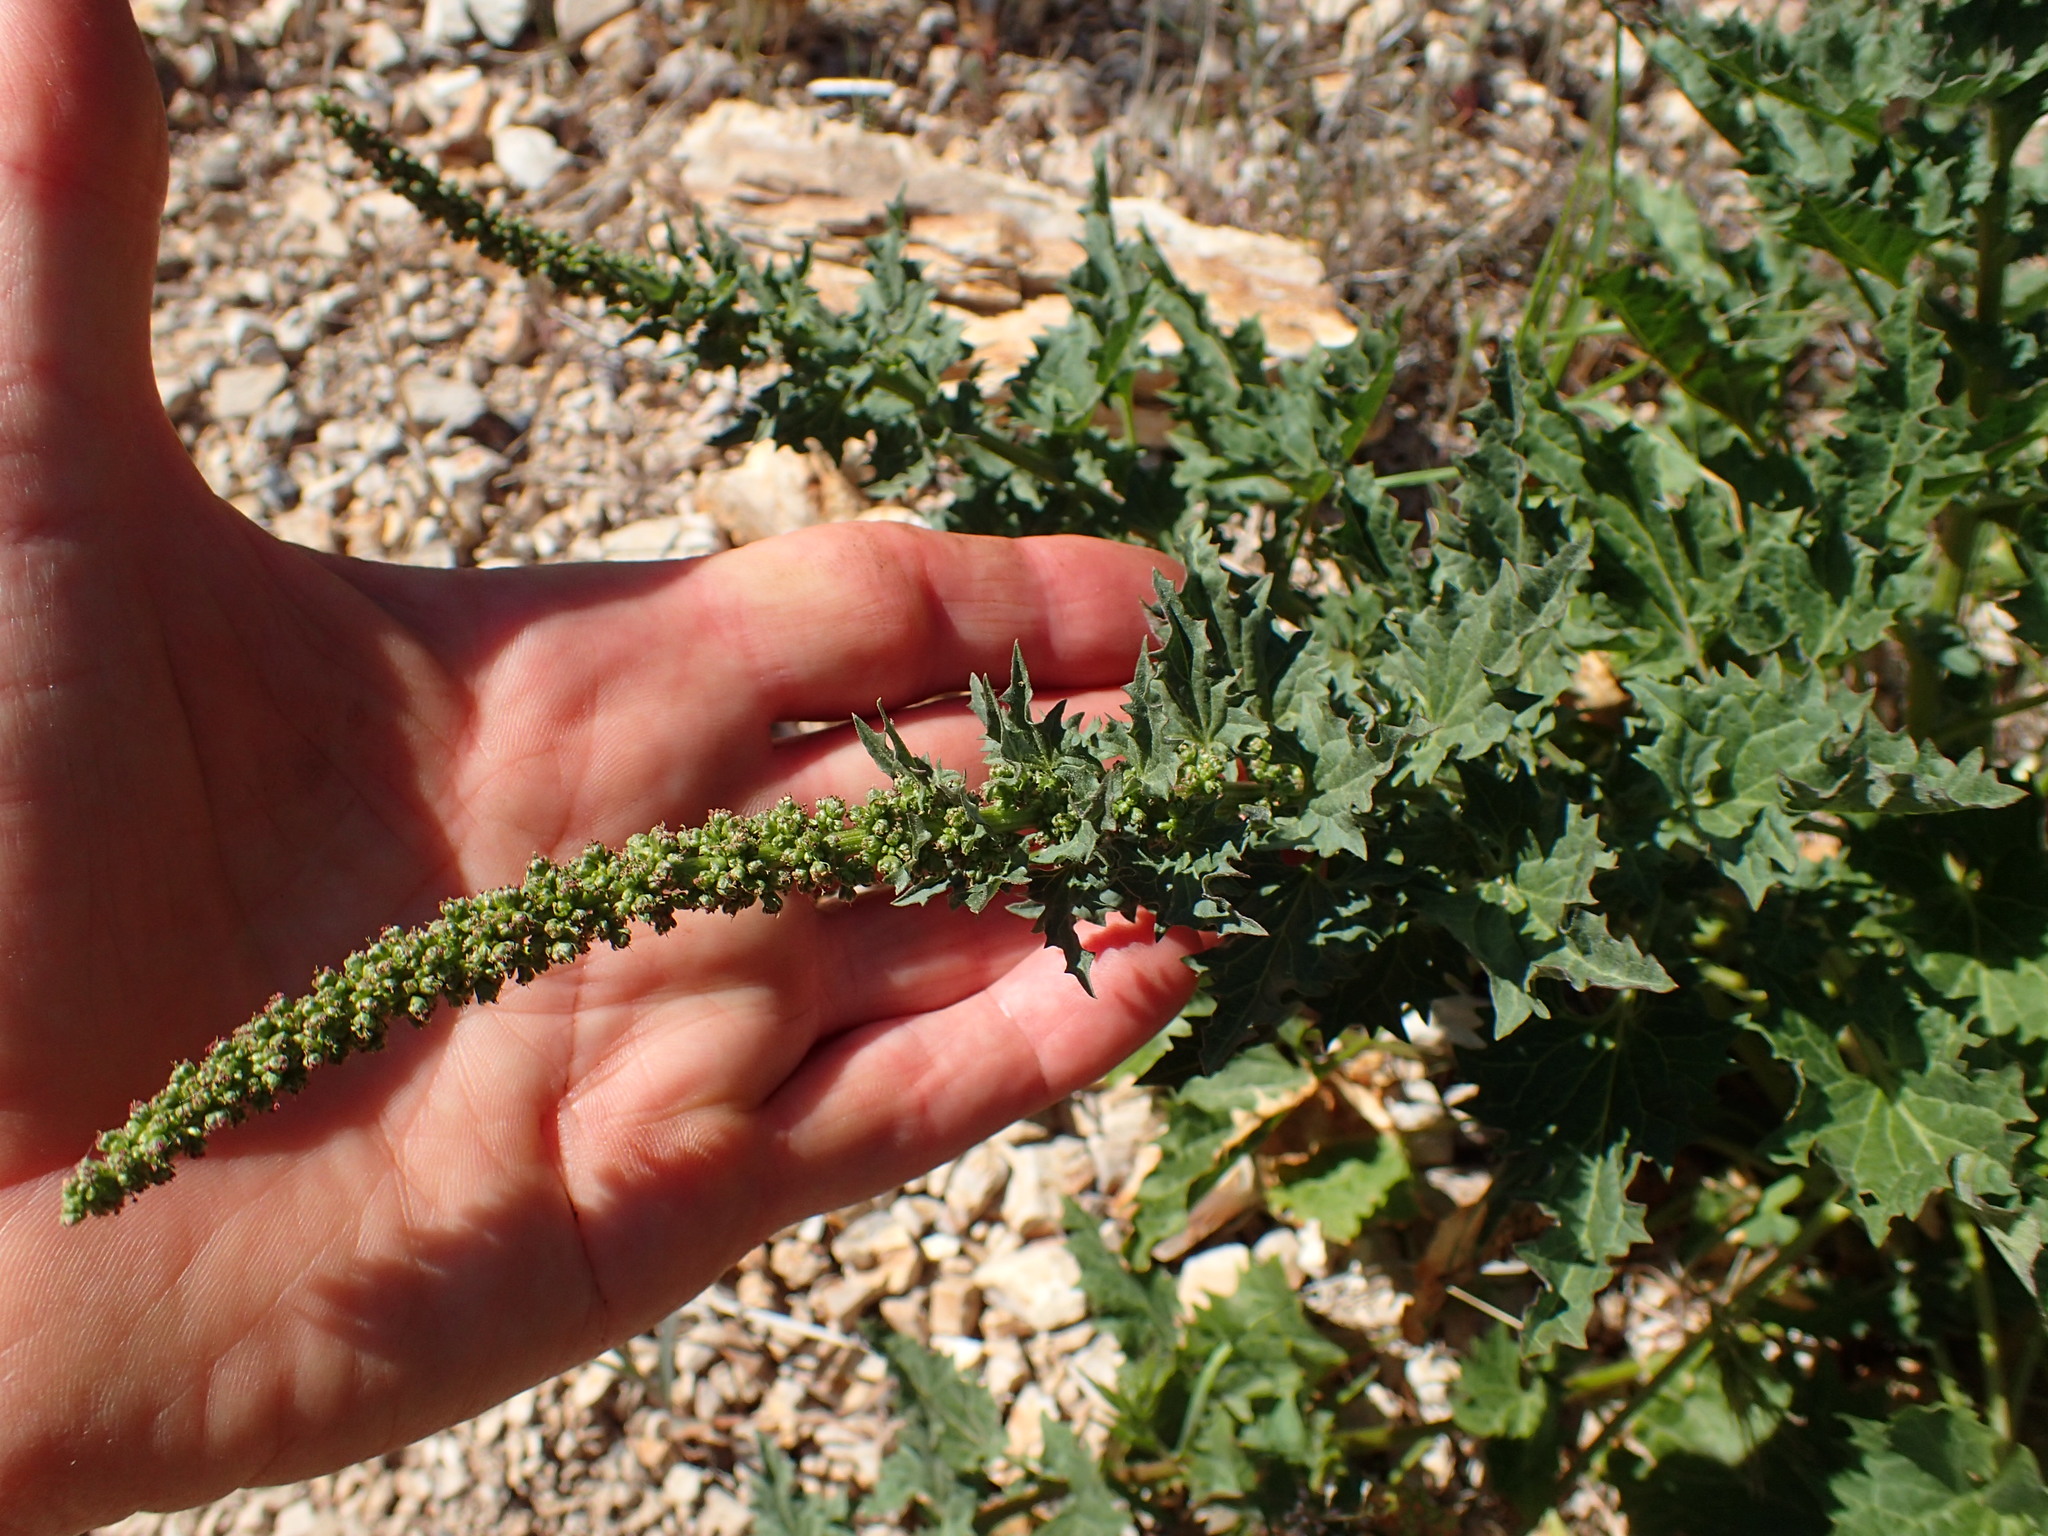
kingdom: Plantae
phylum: Tracheophyta
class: Magnoliopsida
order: Caryophyllales
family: Amaranthaceae
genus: Blitum
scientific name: Blitum californicum
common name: California goosefoot
